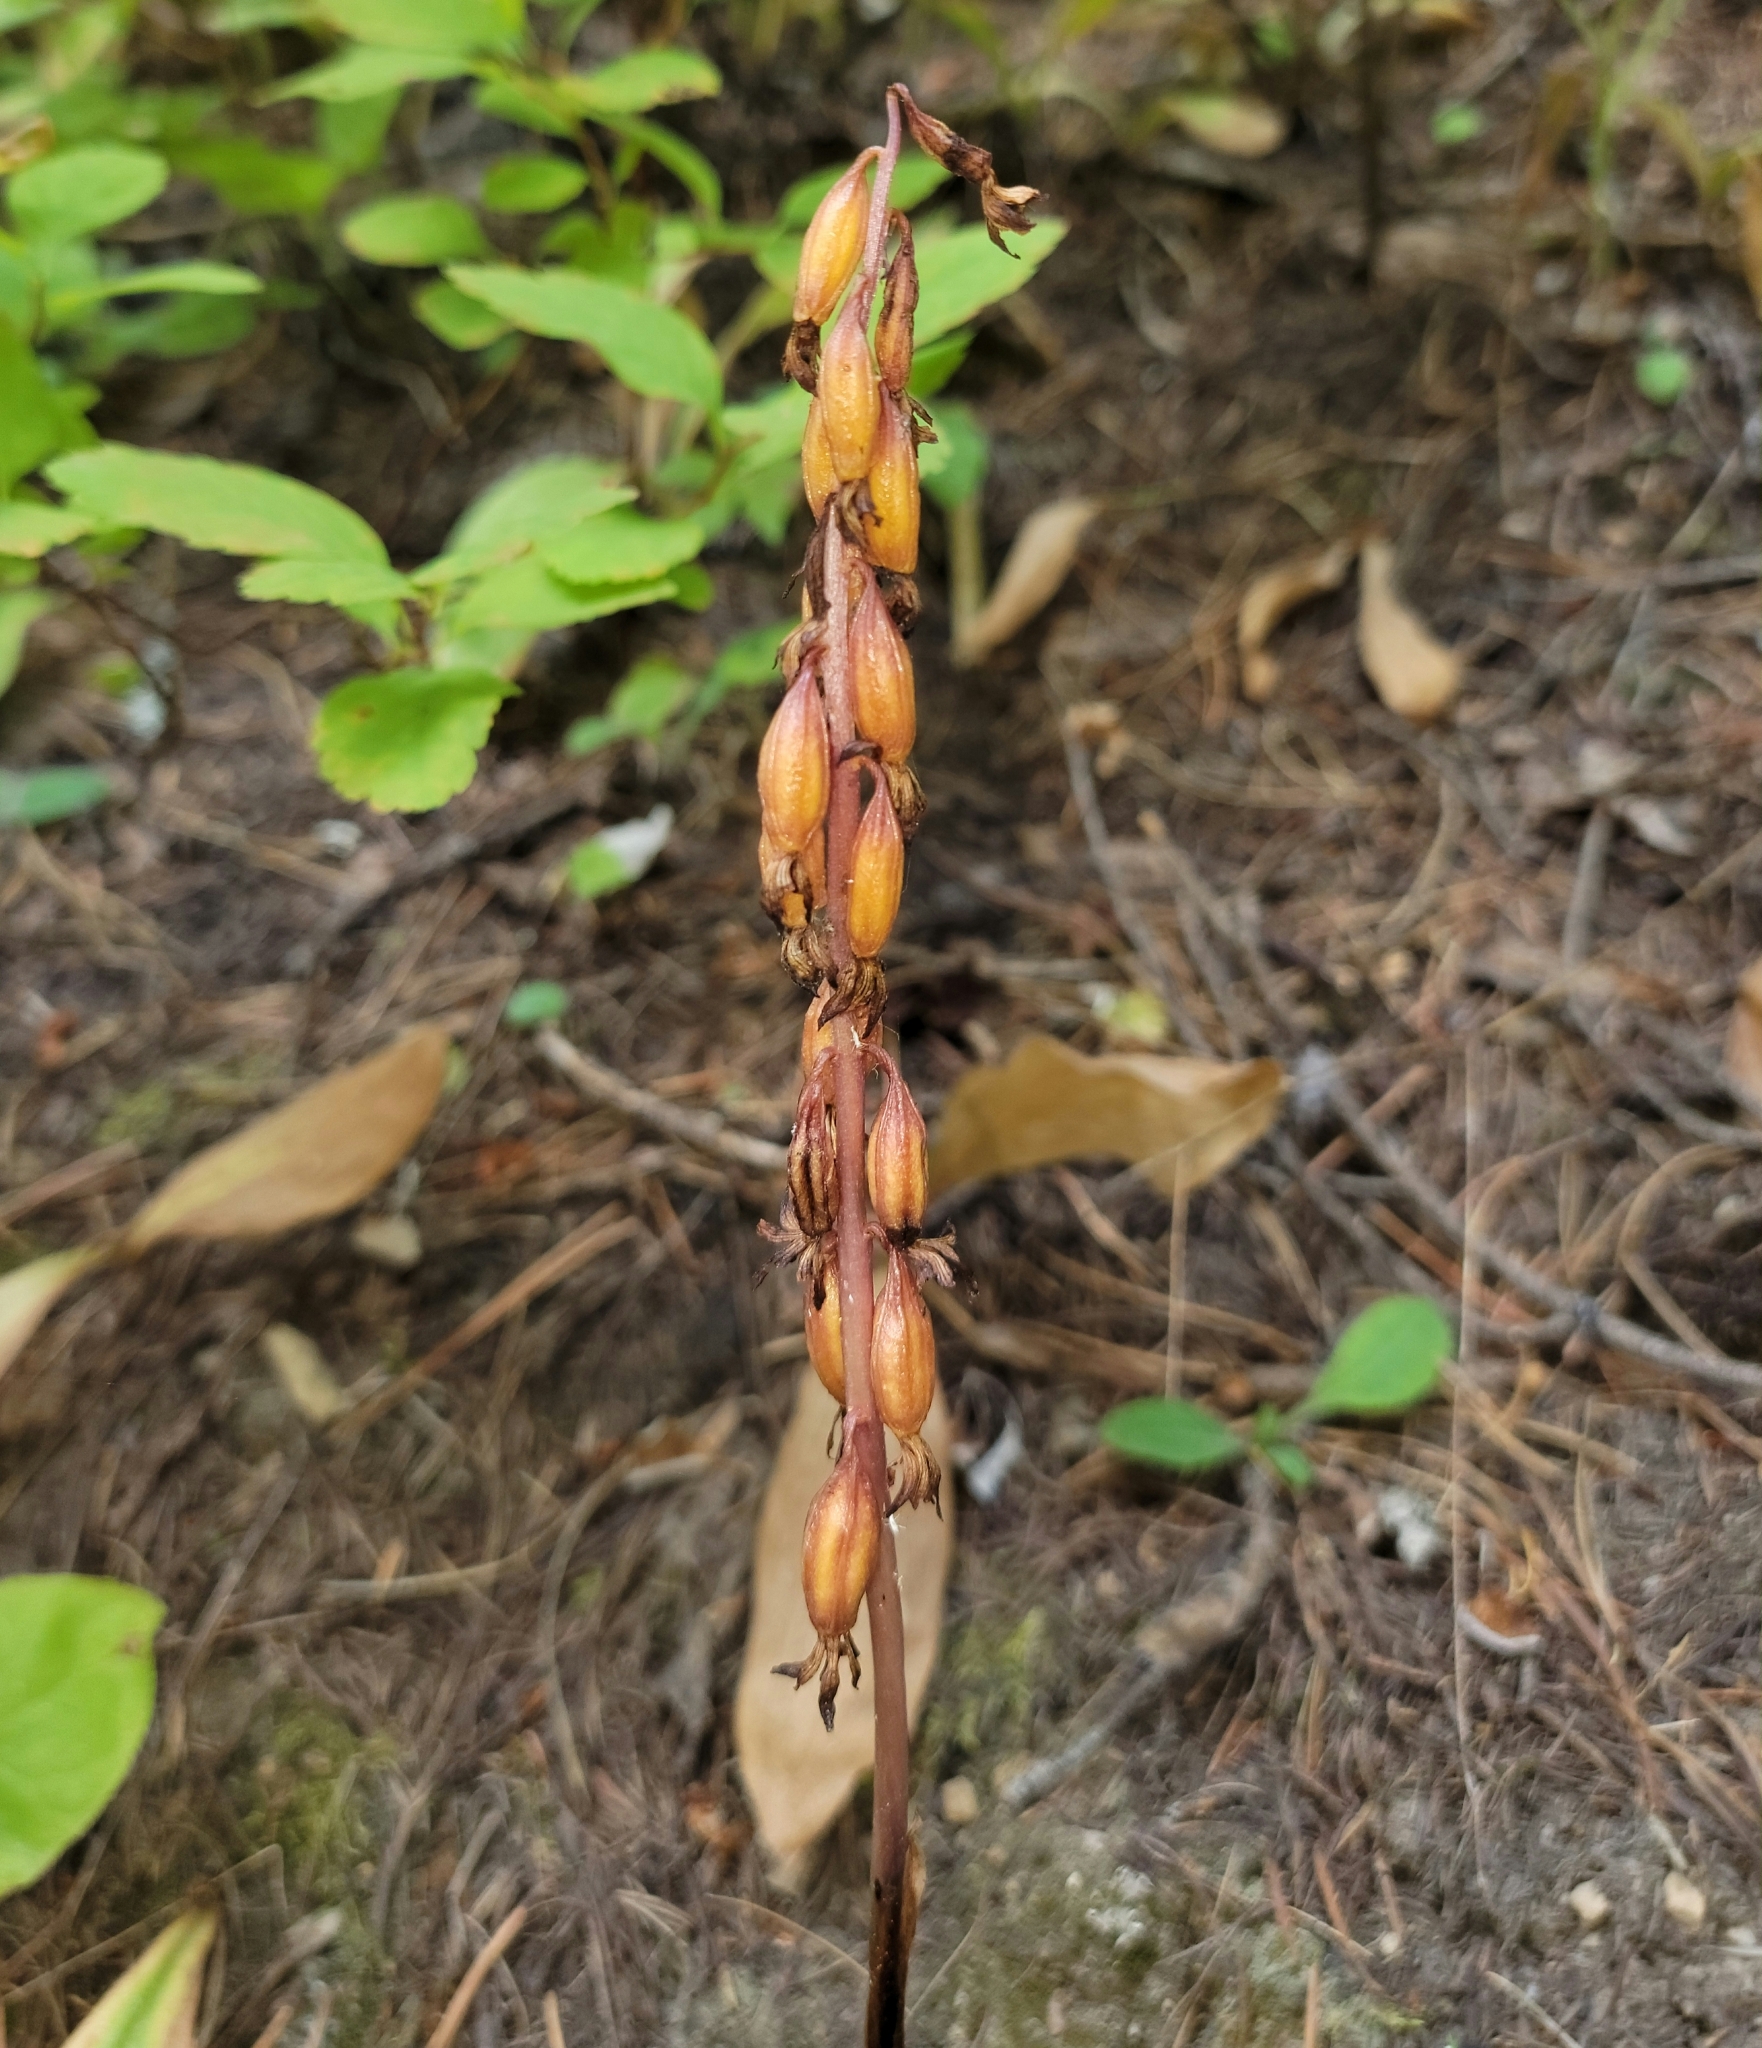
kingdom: Plantae
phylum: Tracheophyta
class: Liliopsida
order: Asparagales
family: Orchidaceae
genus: Corallorhiza
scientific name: Corallorhiza maculata
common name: Spotted coralroot
